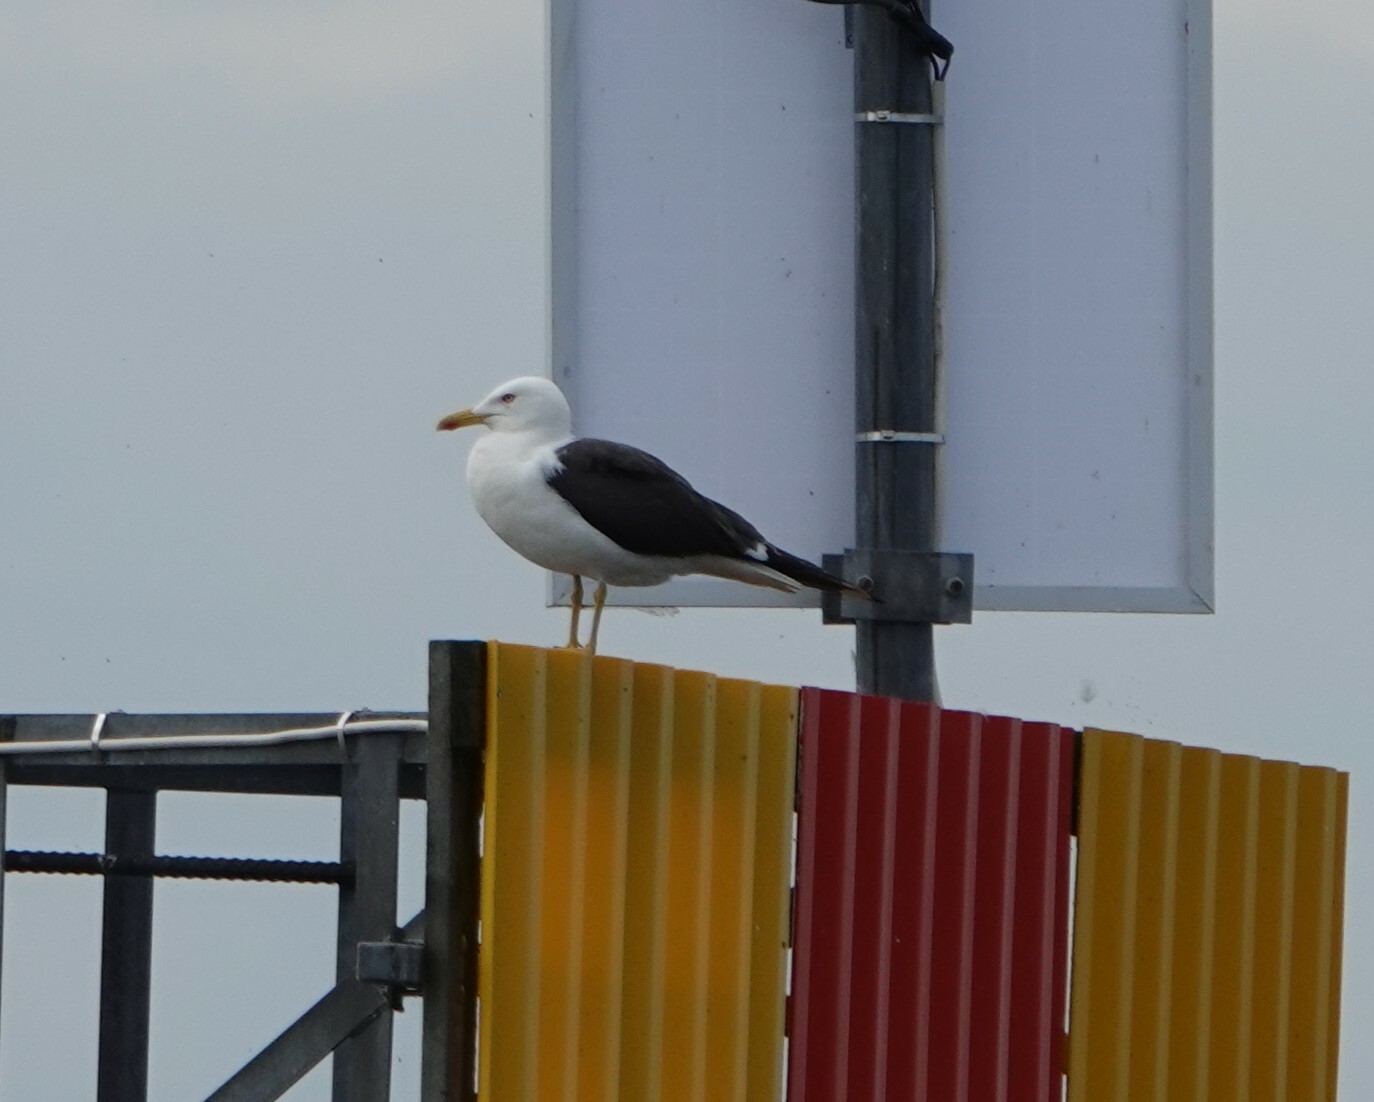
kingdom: Animalia
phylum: Chordata
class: Aves
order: Charadriiformes
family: Laridae
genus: Larus
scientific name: Larus fuscus
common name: Lesser black-backed gull
